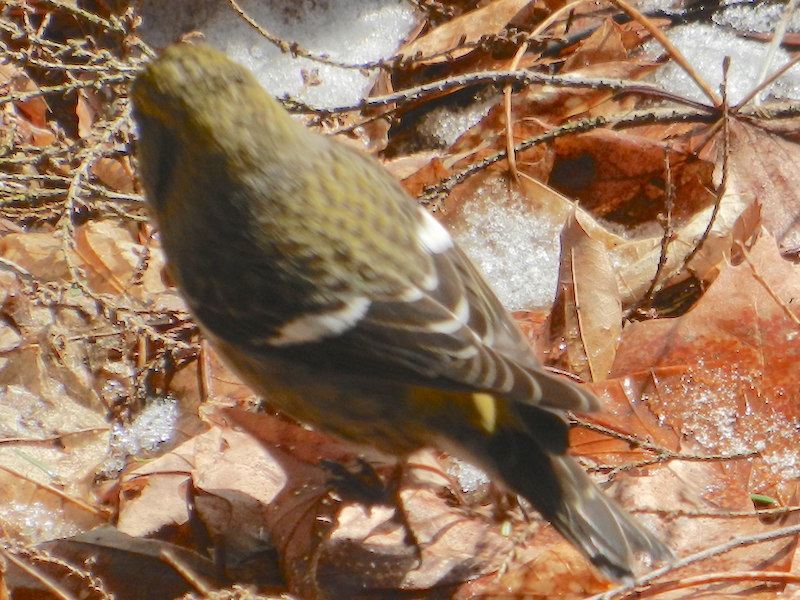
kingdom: Animalia
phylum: Chordata
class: Aves
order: Passeriformes
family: Fringillidae
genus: Loxia
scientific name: Loxia leucoptera
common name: Two-barred crossbill
